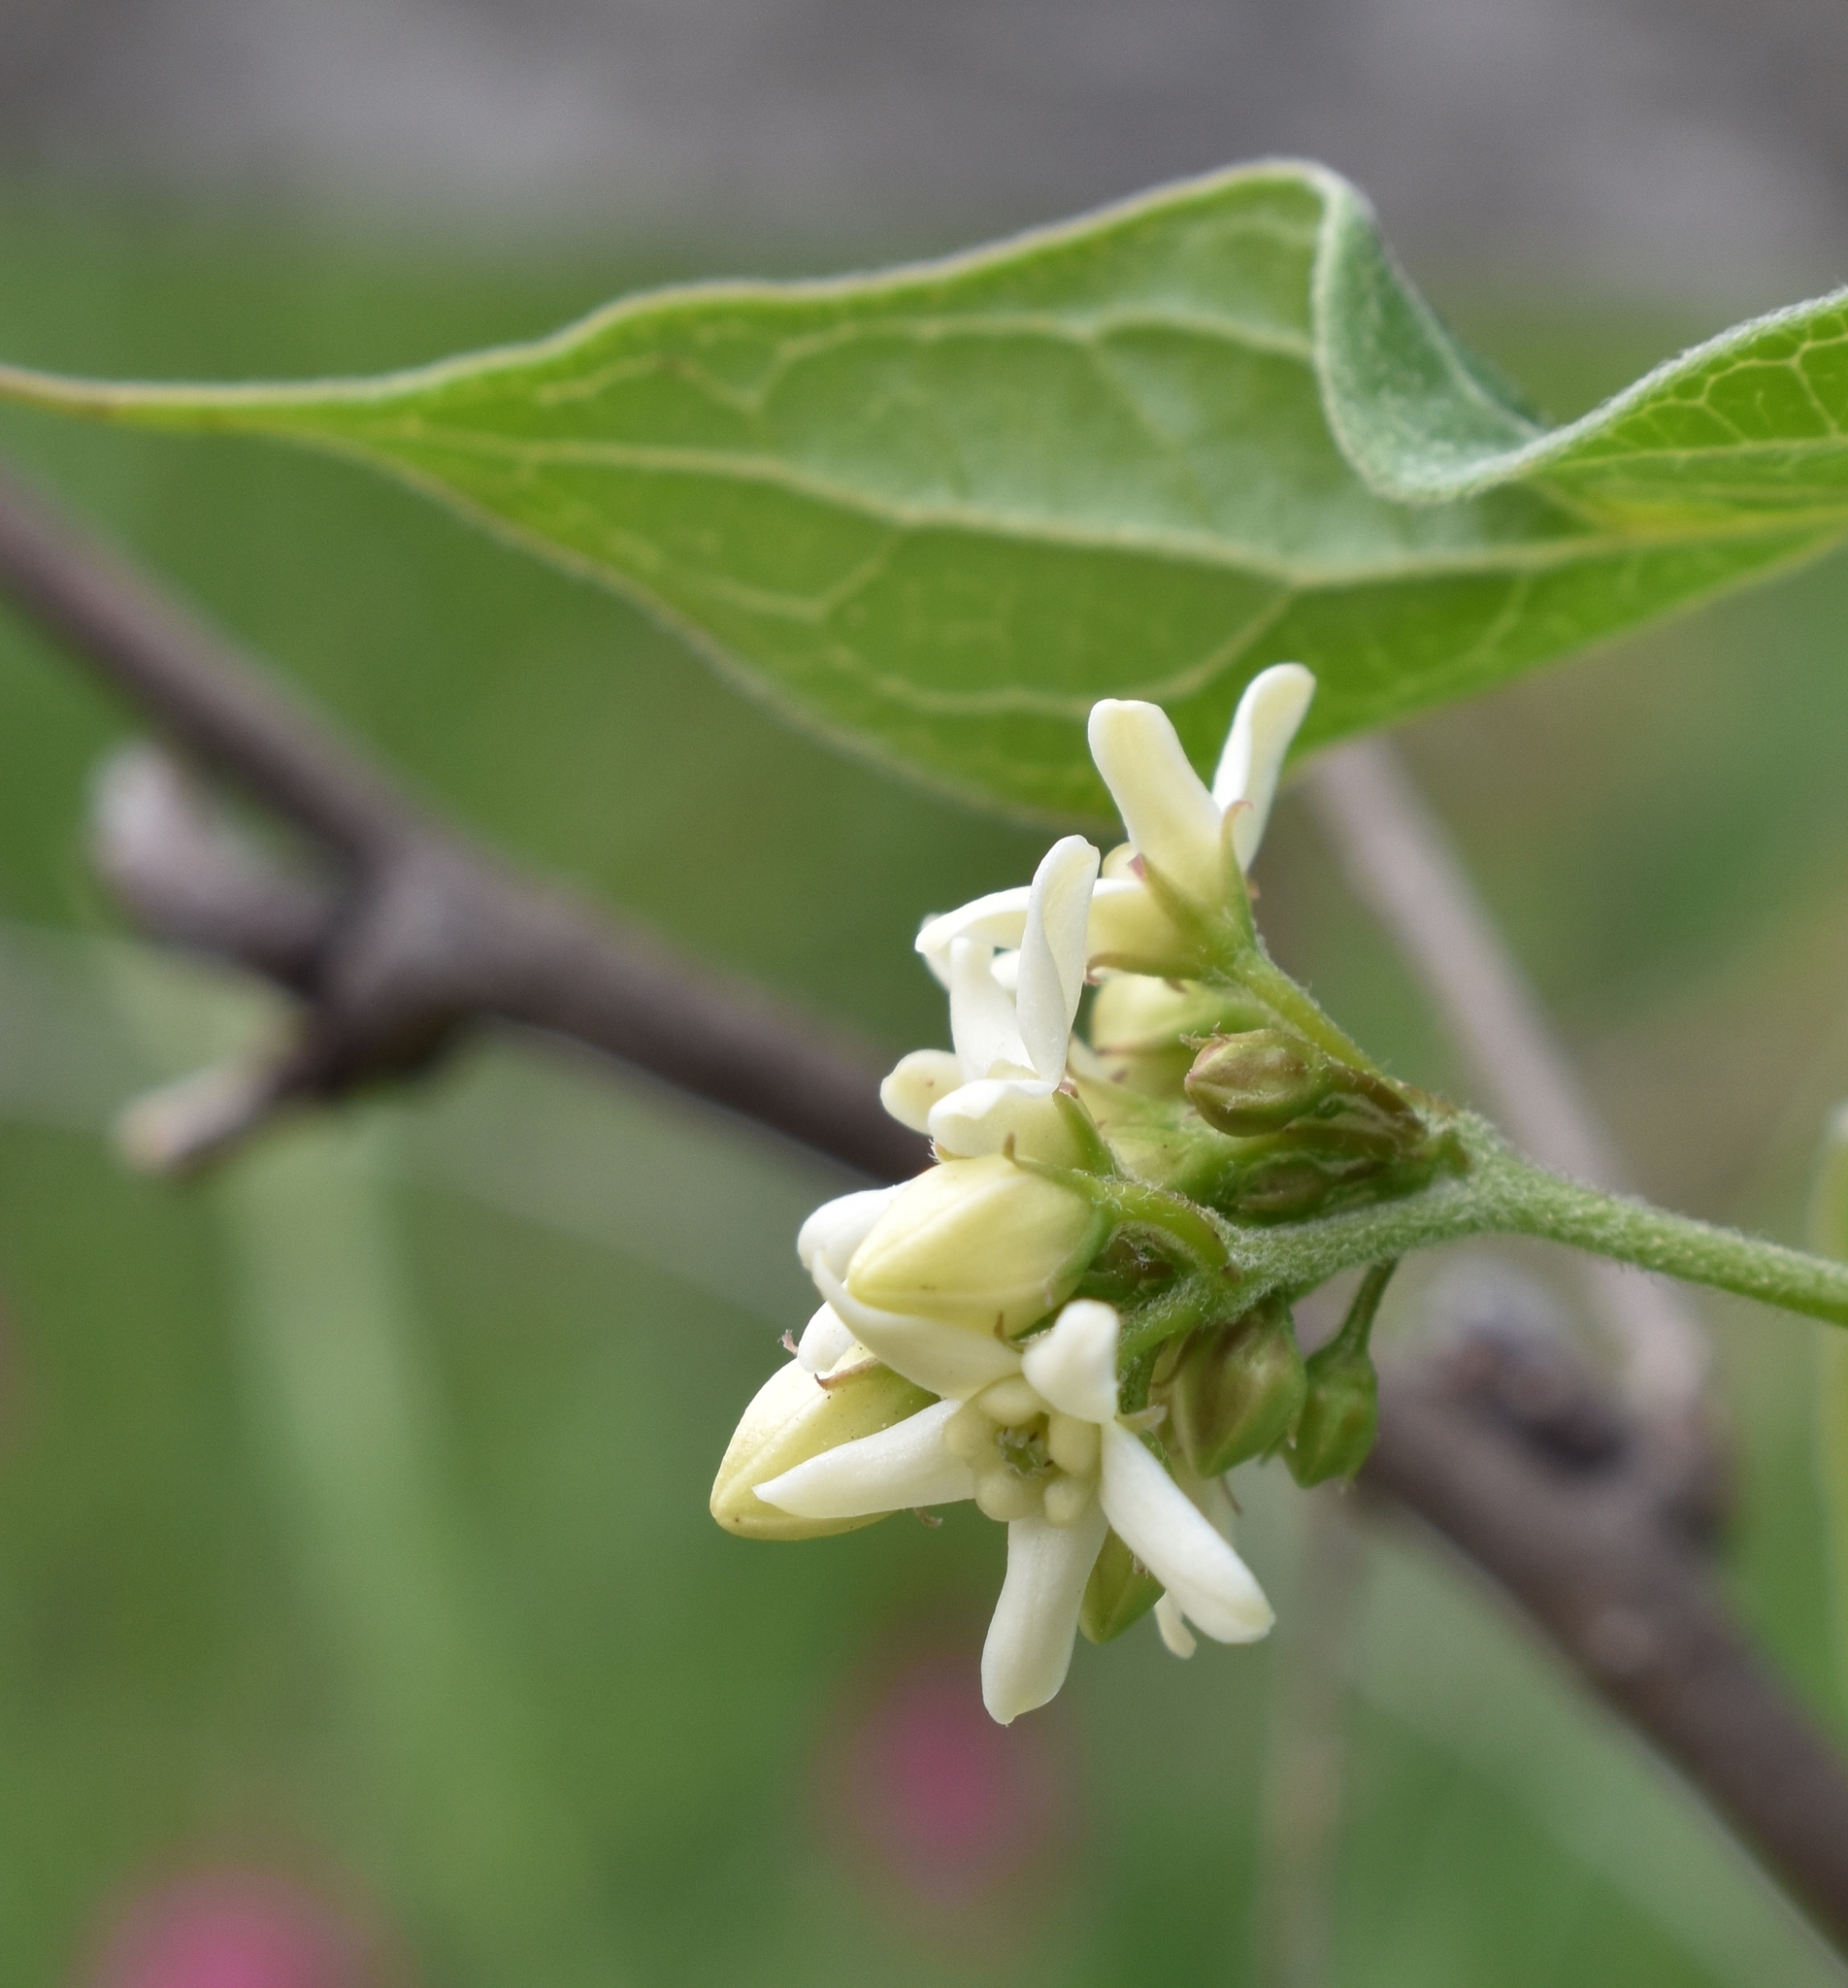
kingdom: Plantae
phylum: Tracheophyta
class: Magnoliopsida
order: Gentianales
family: Apocynaceae
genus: Vincetoxicum
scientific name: Vincetoxicum hirundinaria
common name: White swallowwort
